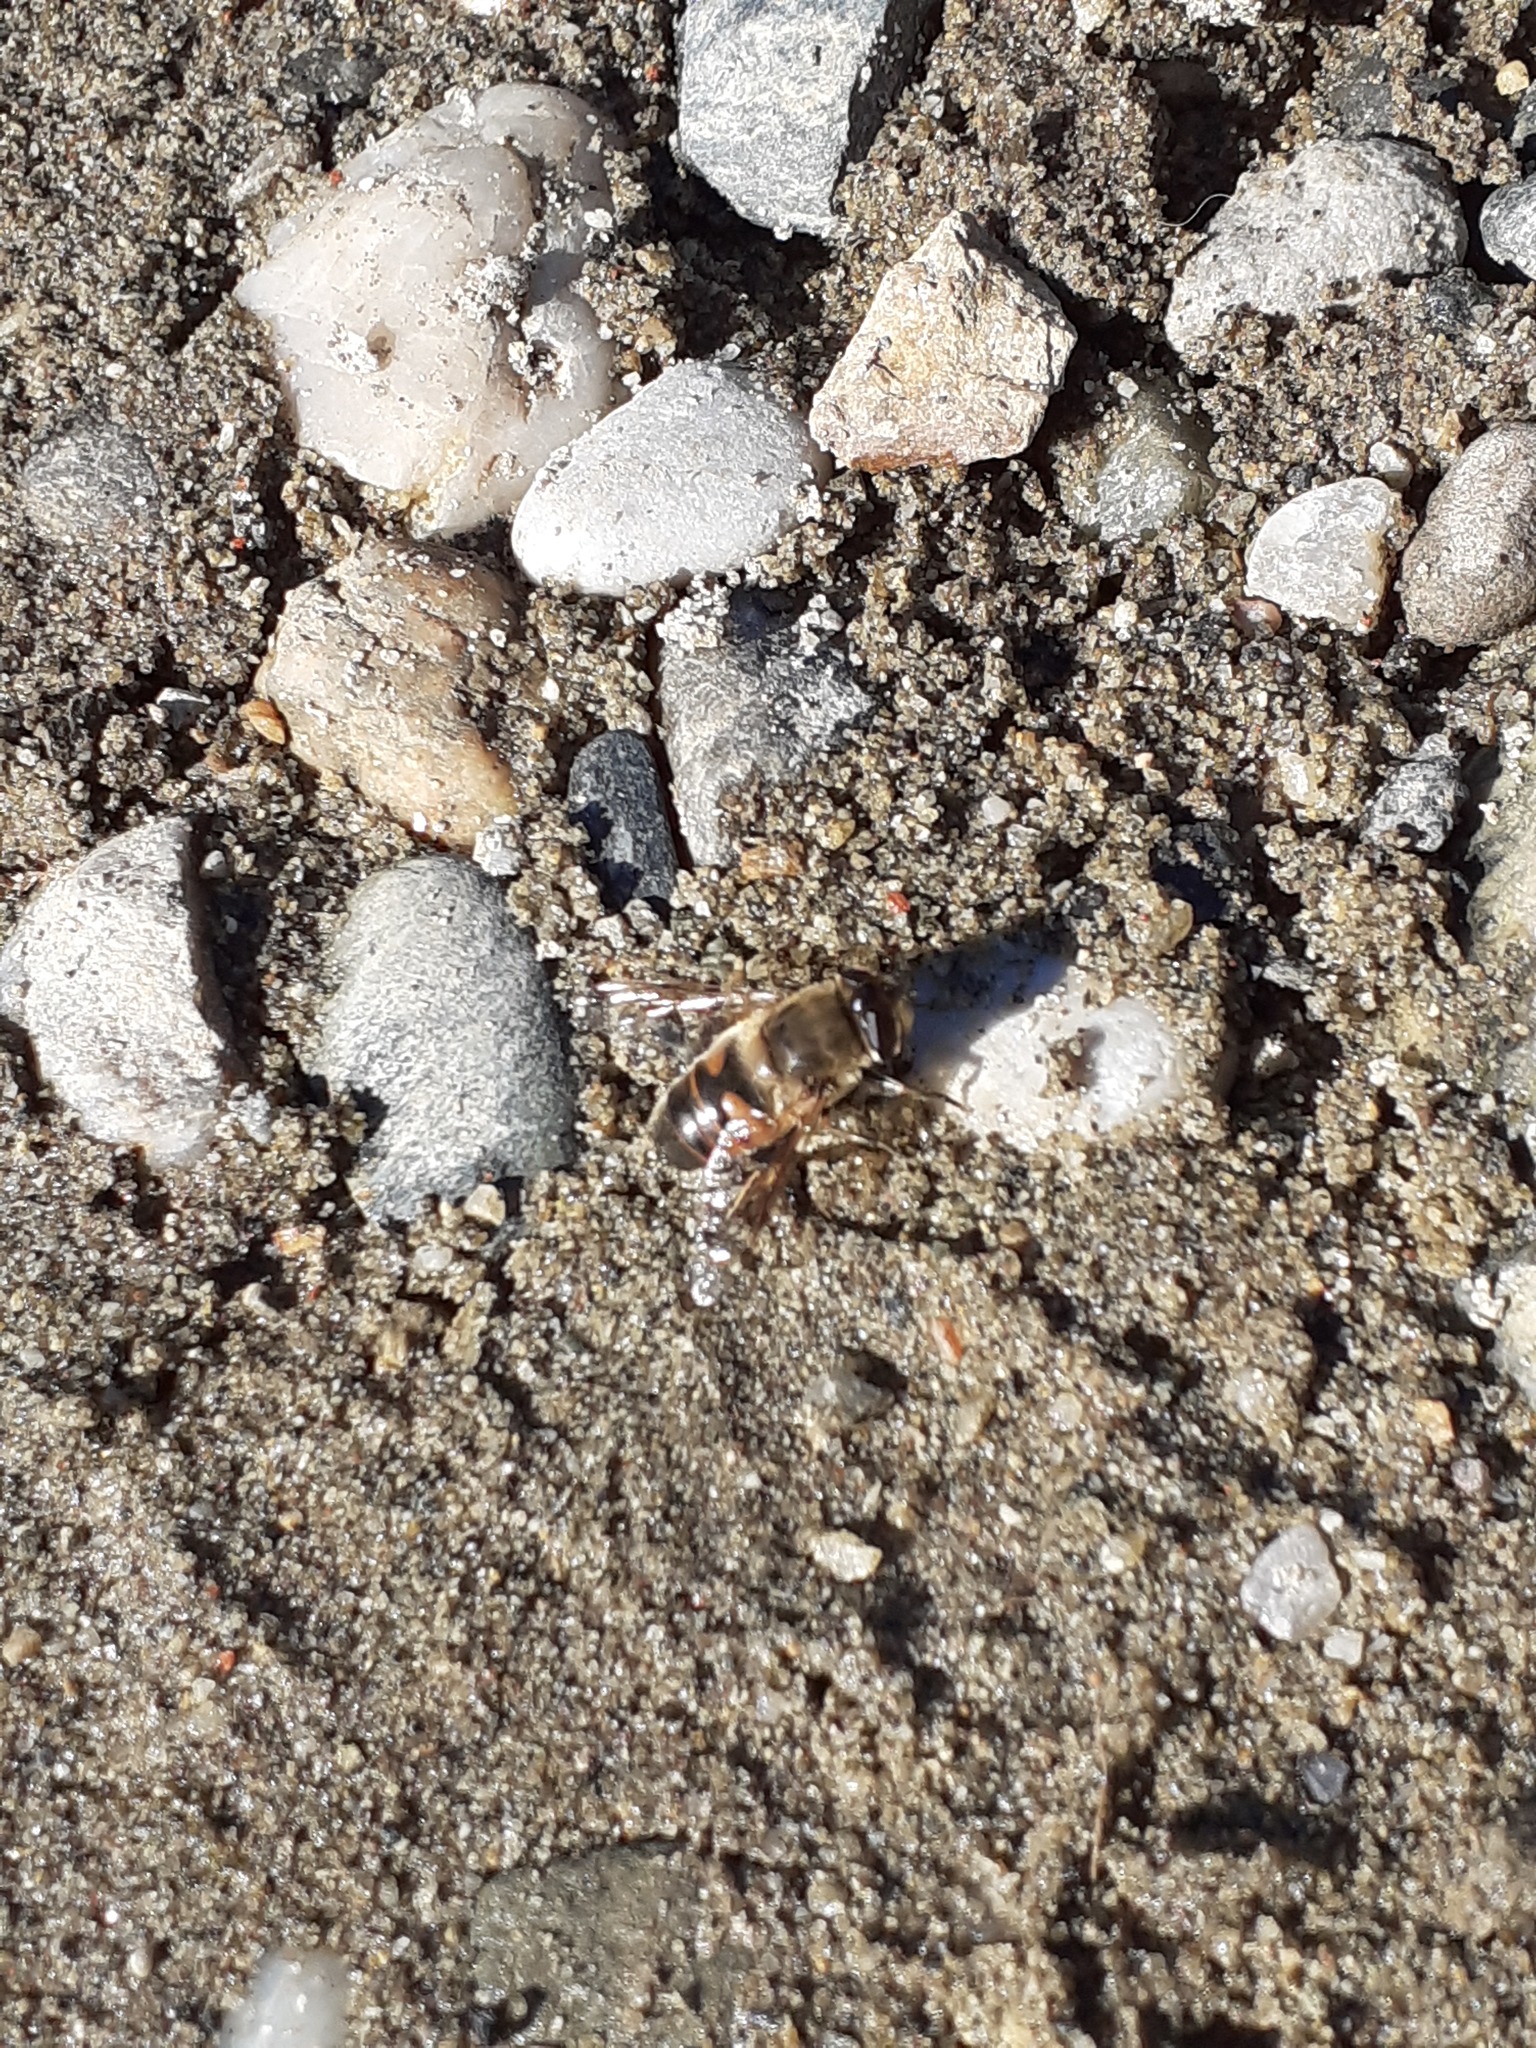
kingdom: Animalia
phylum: Arthropoda
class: Insecta
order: Diptera
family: Syrphidae
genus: Eristalis
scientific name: Eristalis tenax
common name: Drone fly
